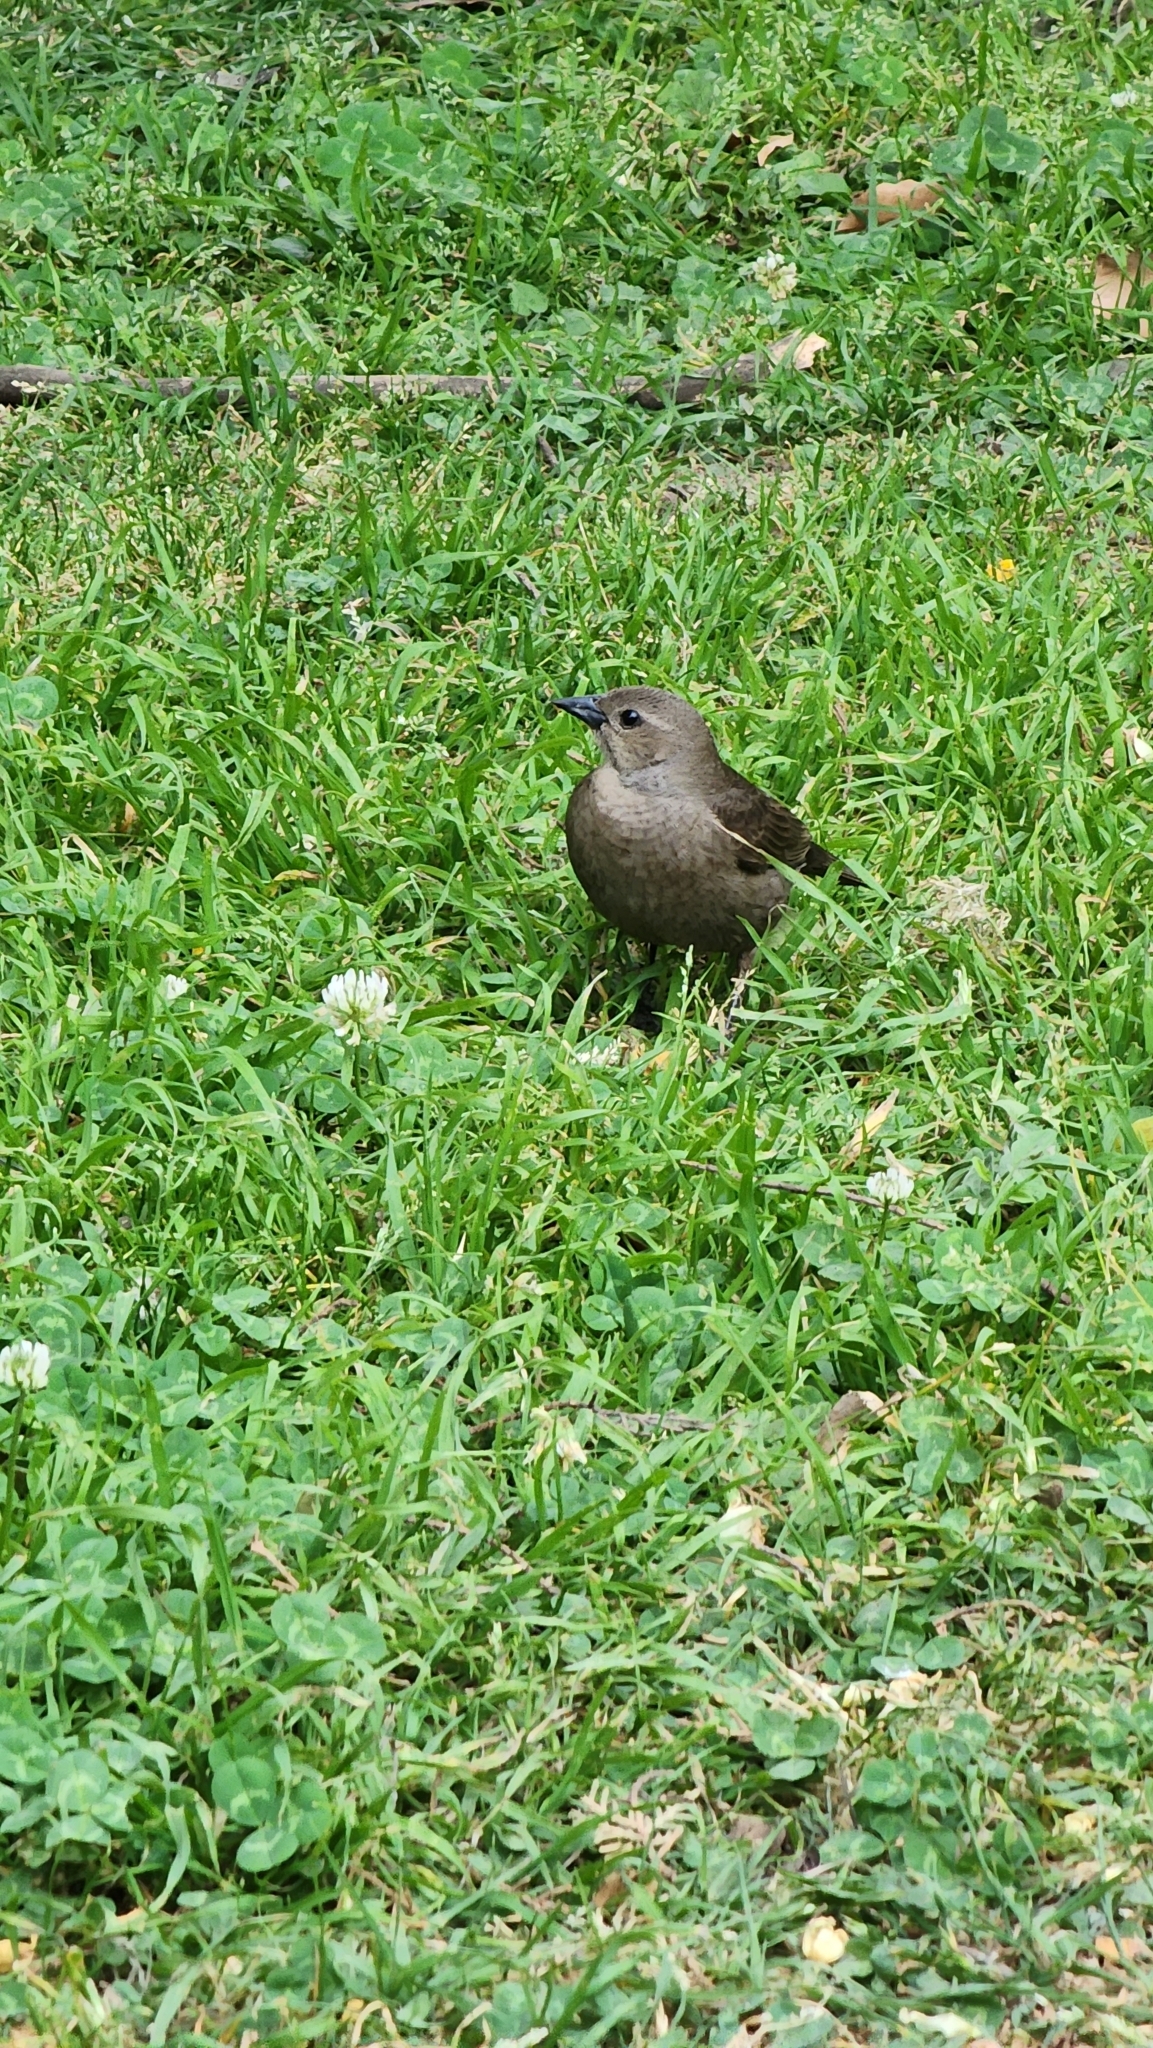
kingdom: Animalia
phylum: Chordata
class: Aves
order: Passeriformes
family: Icteridae
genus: Molothrus
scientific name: Molothrus bonariensis
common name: Shiny cowbird
